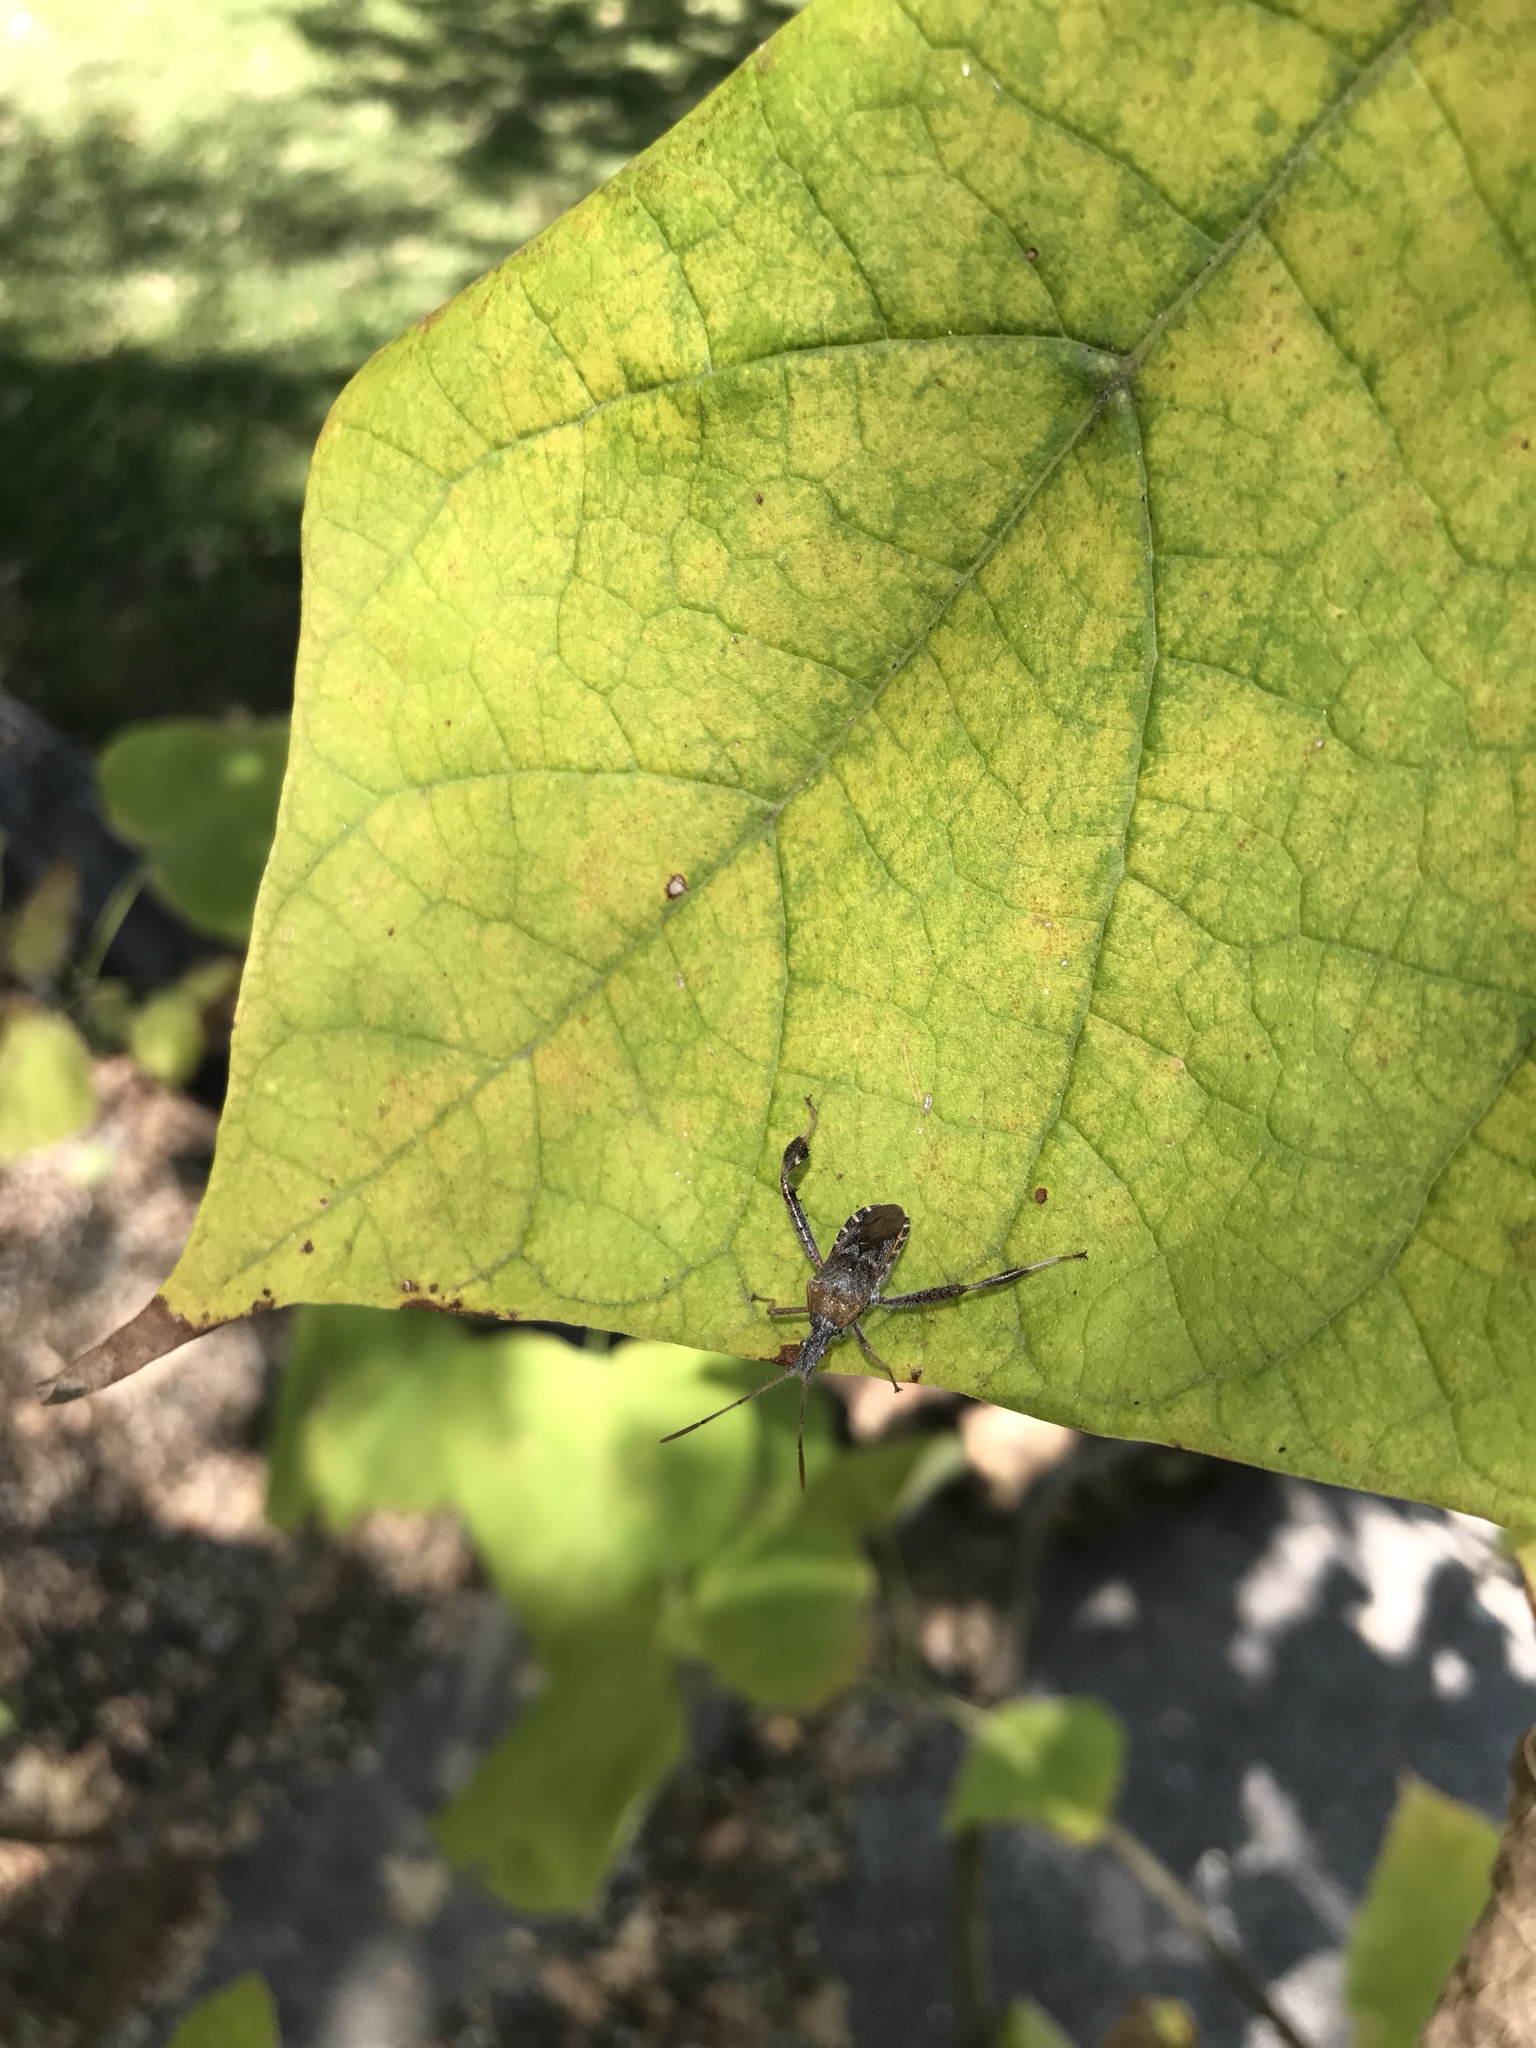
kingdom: Animalia
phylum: Arthropoda
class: Insecta
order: Hemiptera
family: Coreidae
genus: Acanthocephala
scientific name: Acanthocephala terminalis
